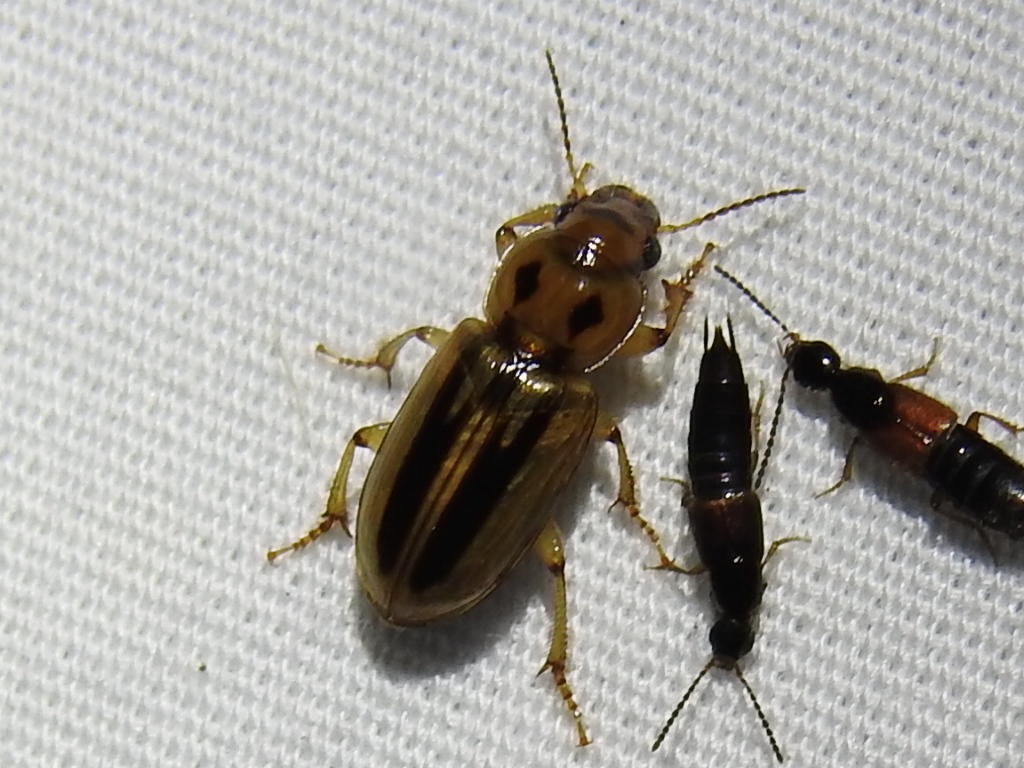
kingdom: Animalia
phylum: Arthropoda
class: Insecta
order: Coleoptera
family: Carabidae
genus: Stenolophus
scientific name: Stenolophus lineola
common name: Lined stenolophus
